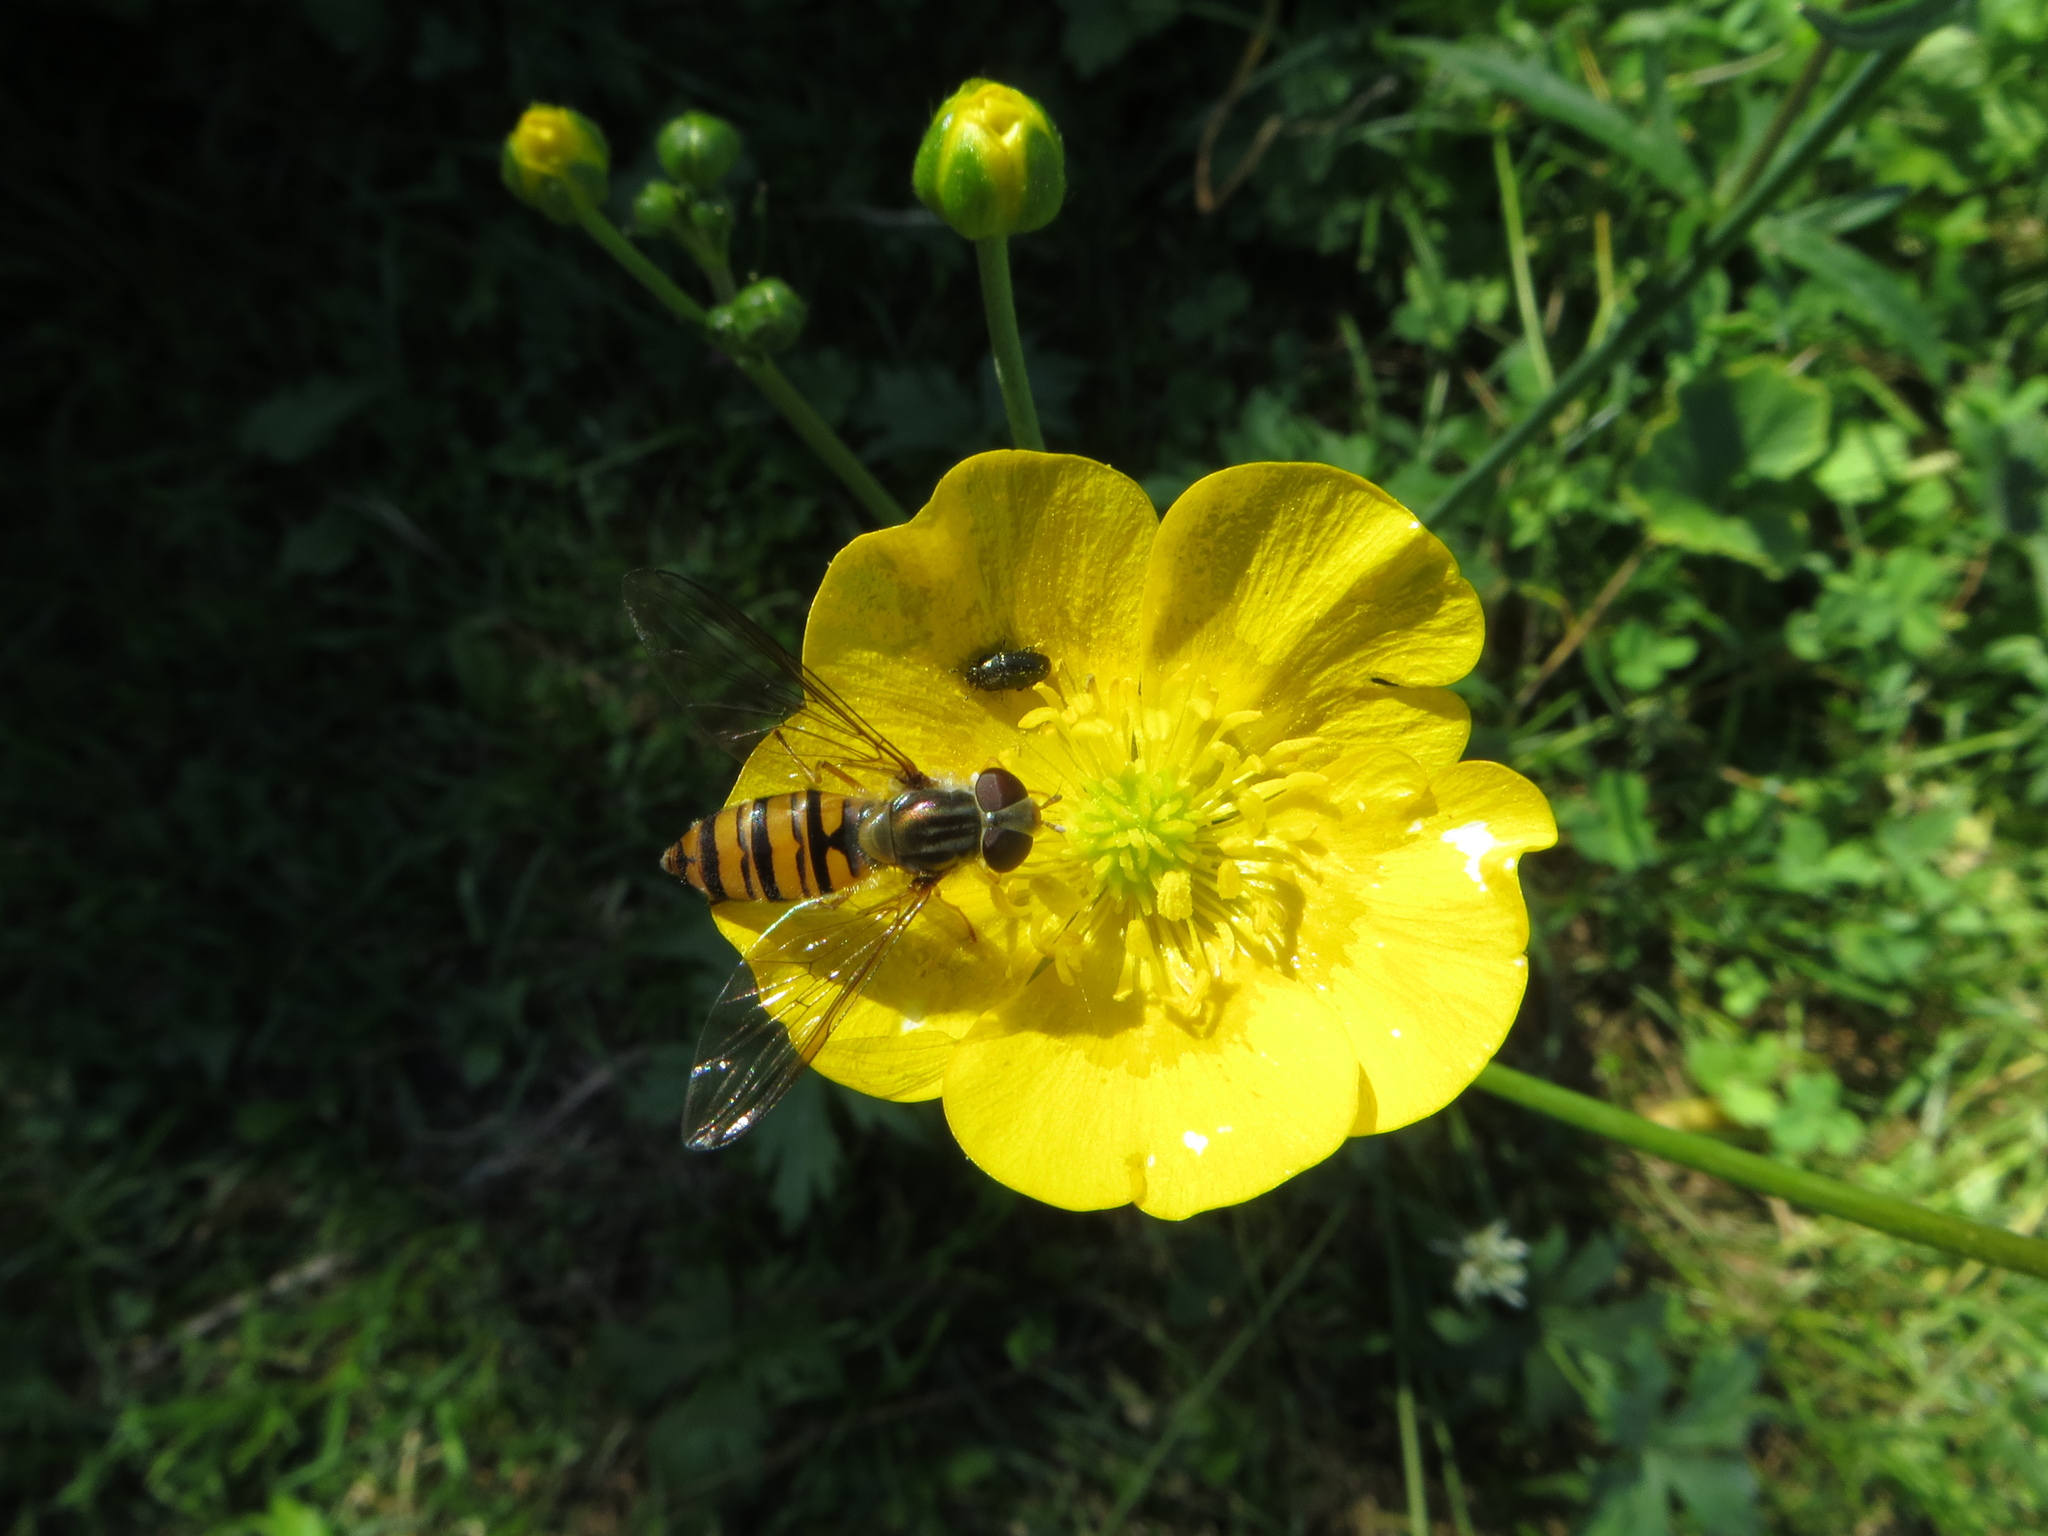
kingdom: Animalia
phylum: Arthropoda
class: Insecta
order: Diptera
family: Syrphidae
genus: Episyrphus
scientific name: Episyrphus balteatus
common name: Marmalade hoverfly
